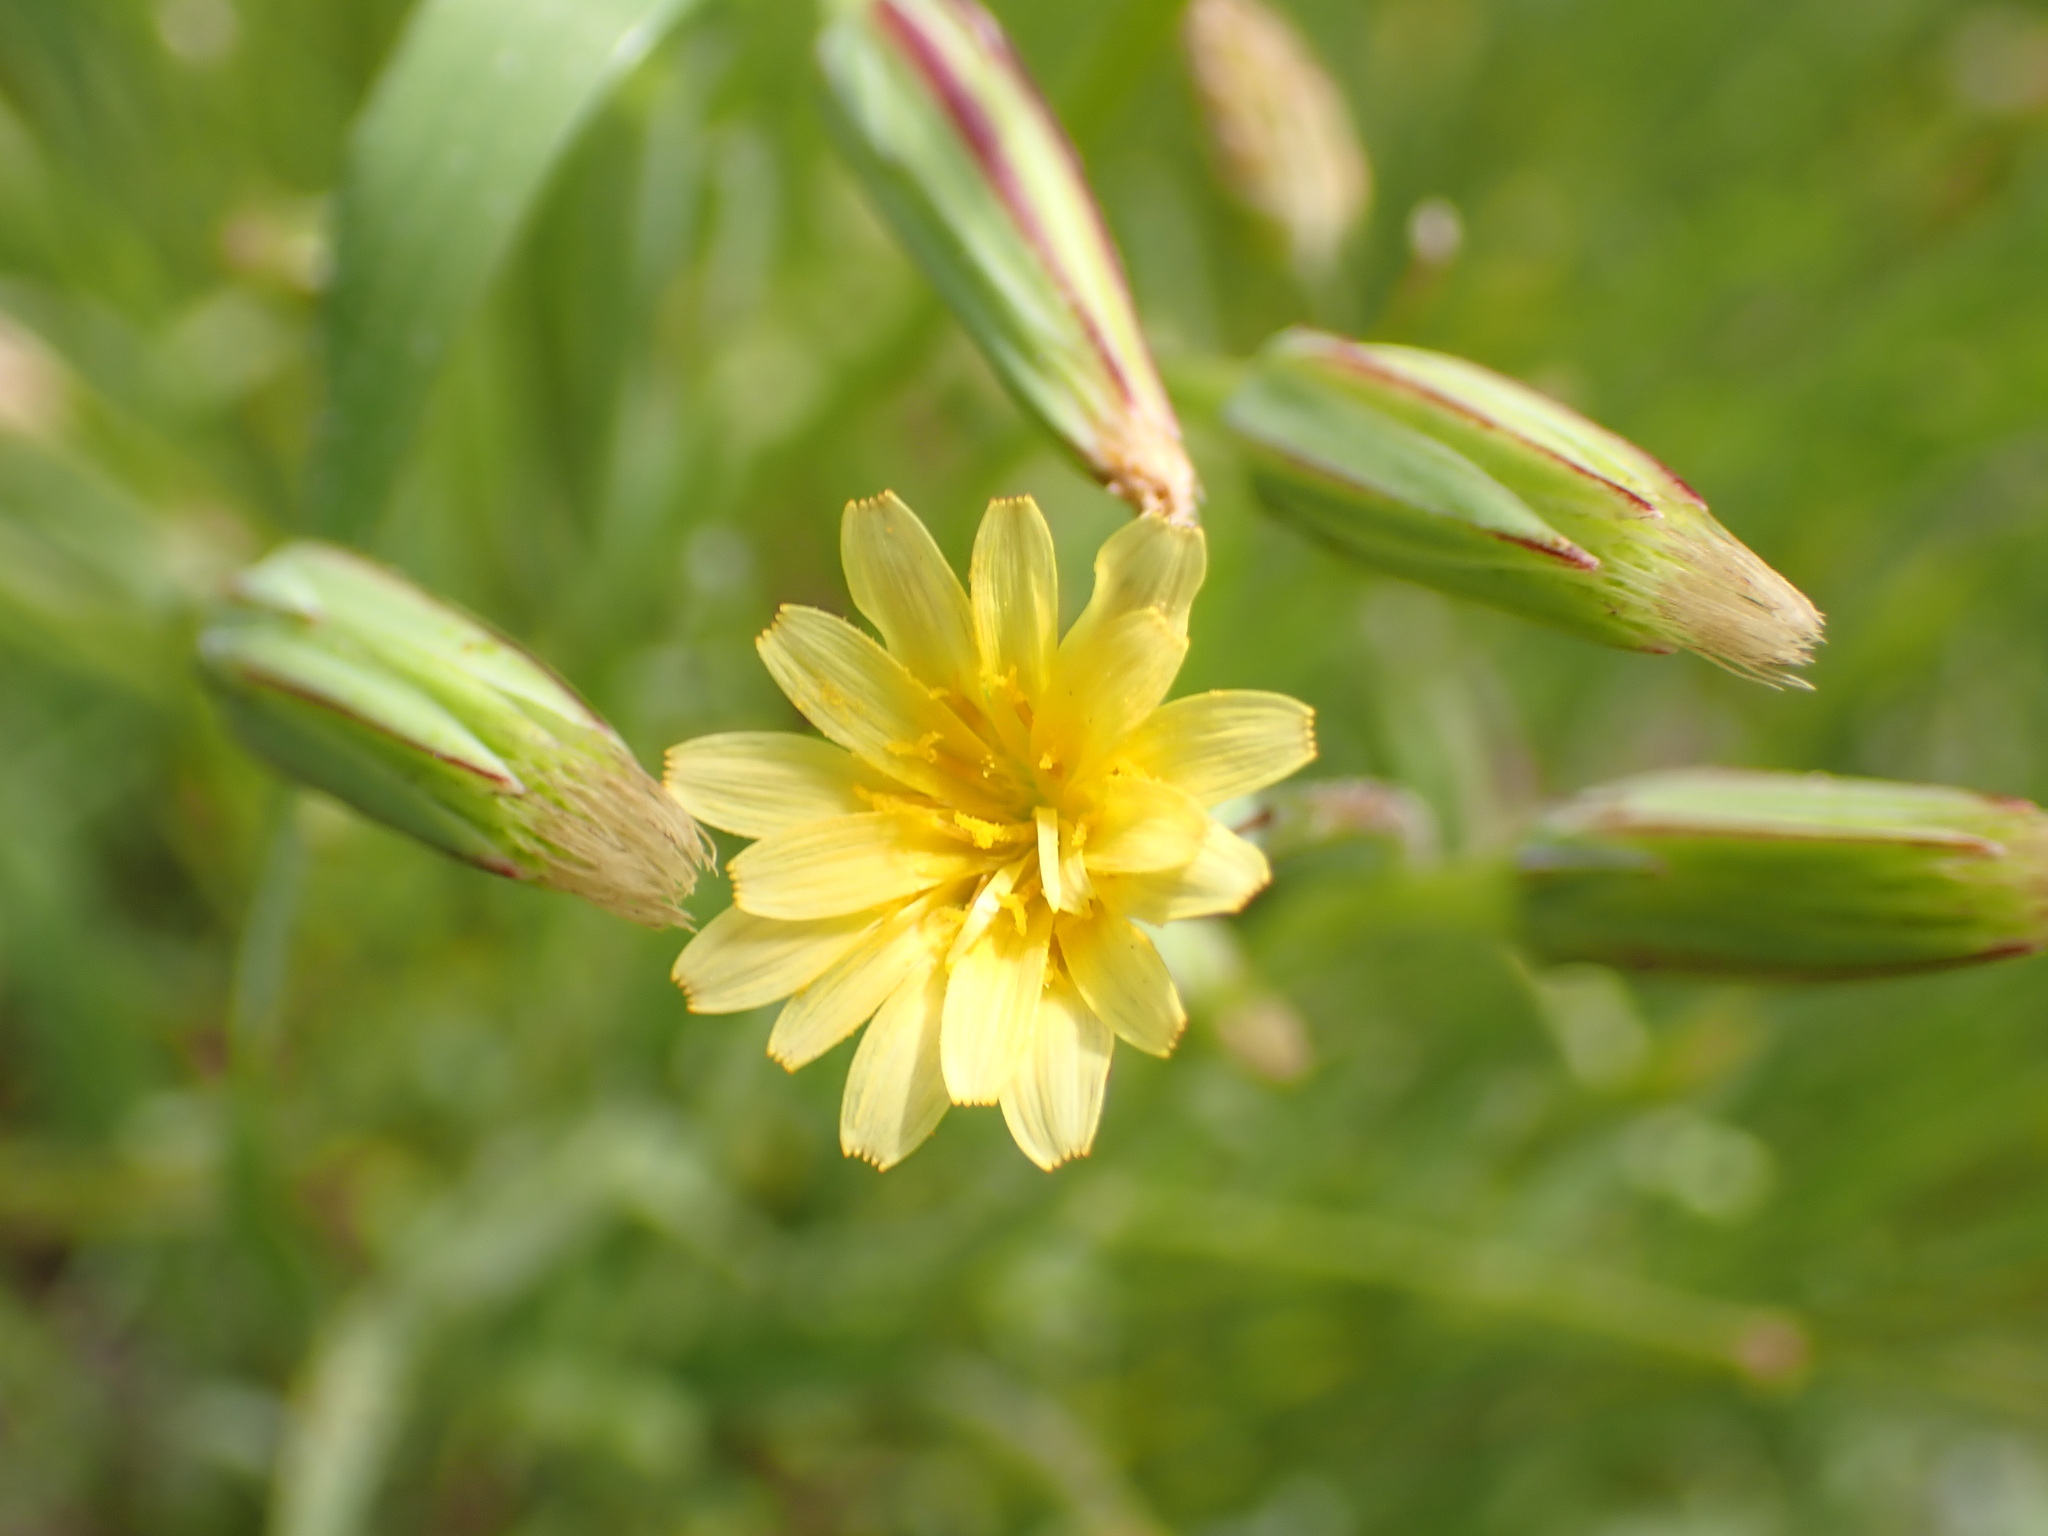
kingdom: Plantae
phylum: Tracheophyta
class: Magnoliopsida
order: Asterales
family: Asteraceae
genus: Microseris
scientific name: Microseris douglasii
